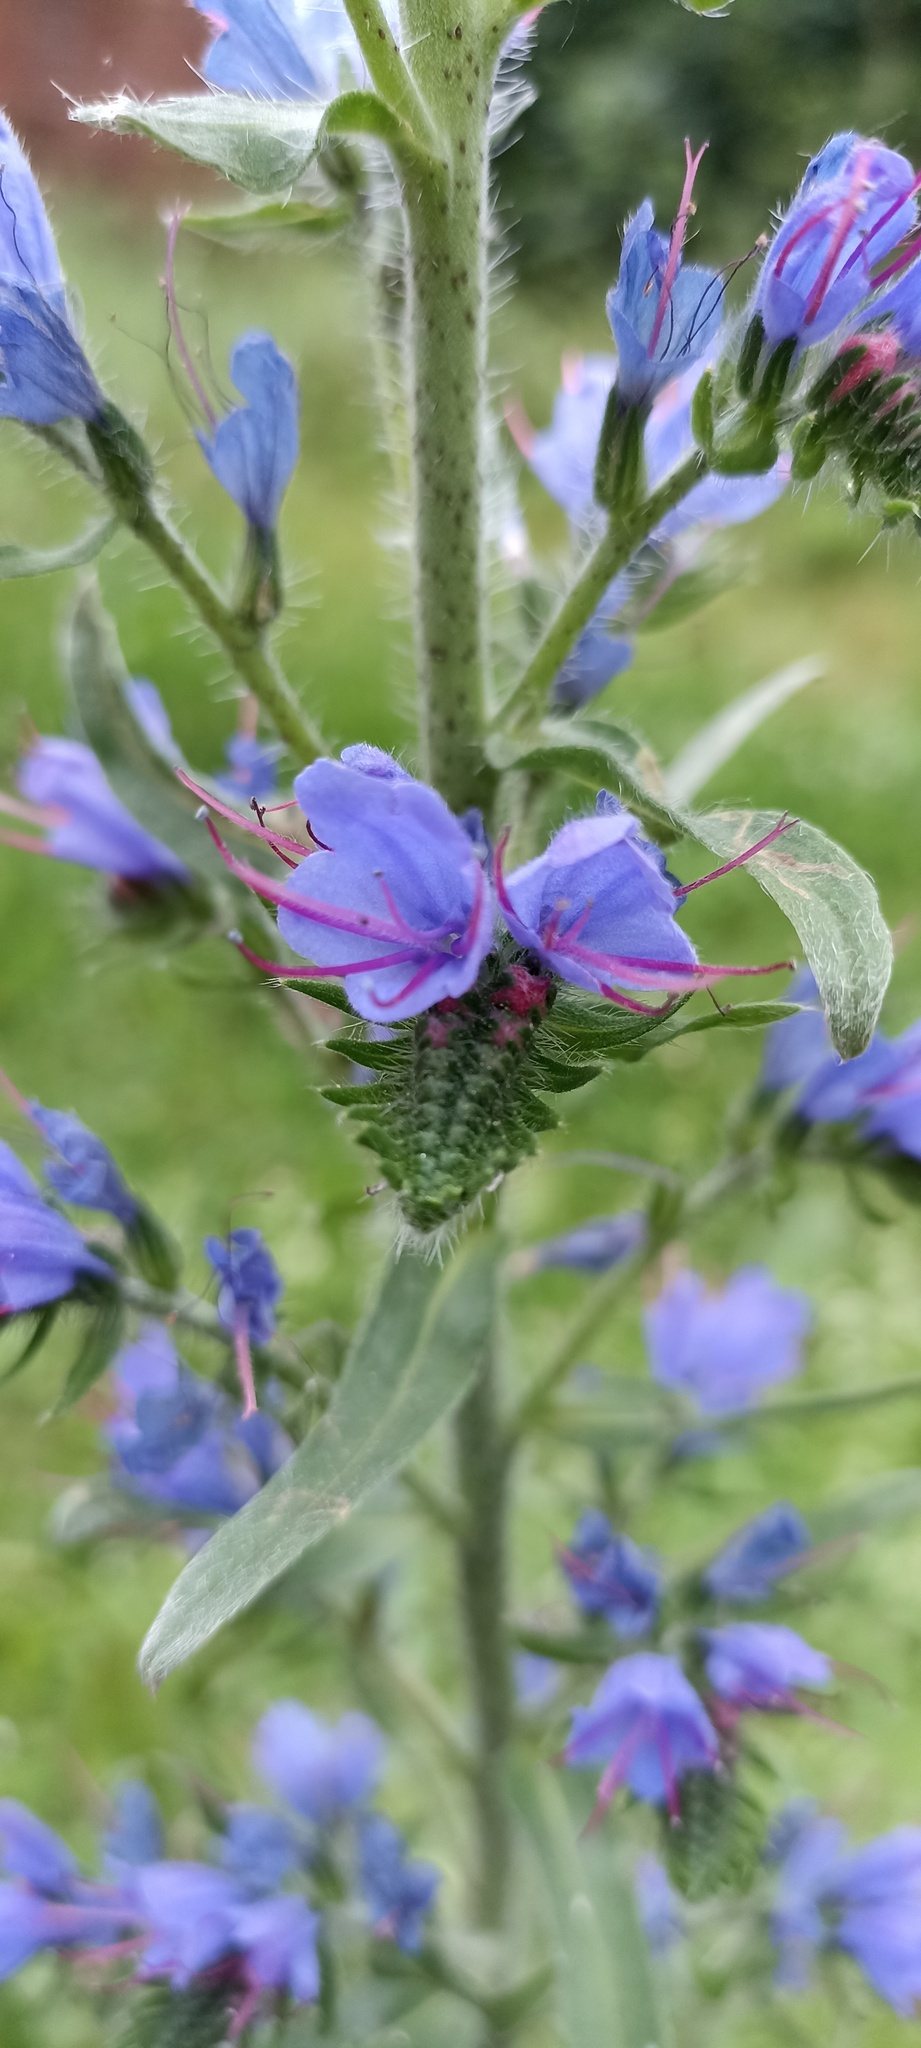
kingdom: Plantae
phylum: Tracheophyta
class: Magnoliopsida
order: Boraginales
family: Boraginaceae
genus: Echium
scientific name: Echium vulgare
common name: Common viper's bugloss
